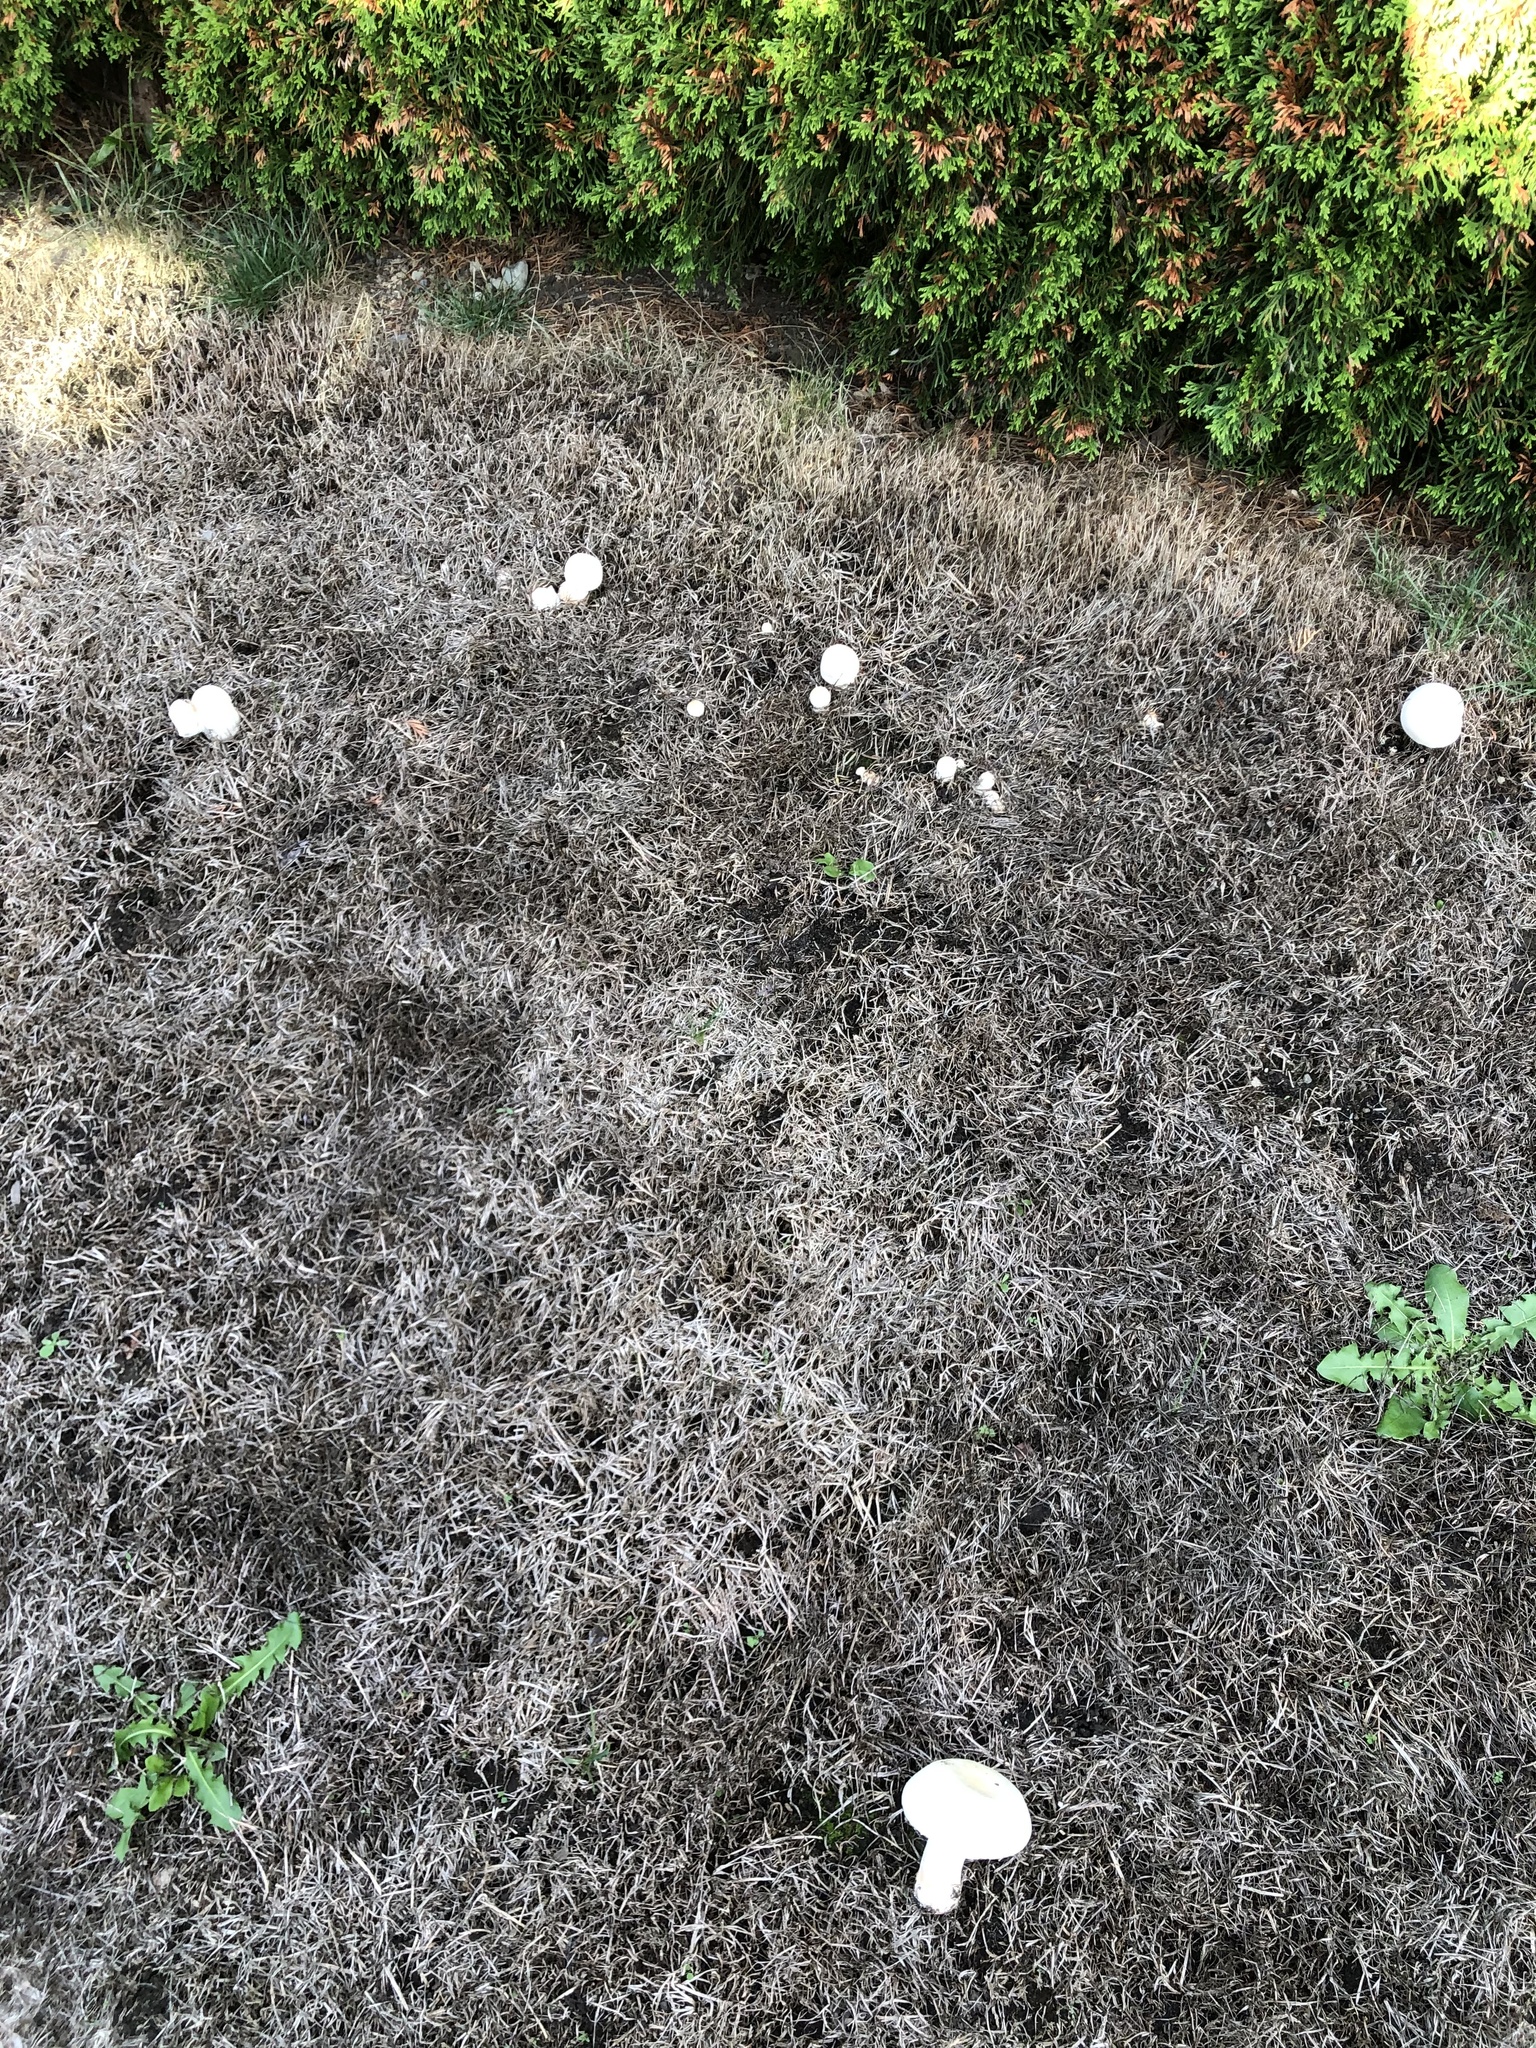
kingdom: Fungi
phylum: Basidiomycota
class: Agaricomycetes
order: Agaricales
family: Agaricaceae
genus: Leucoagaricus
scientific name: Leucoagaricus leucothites
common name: White dapperling
